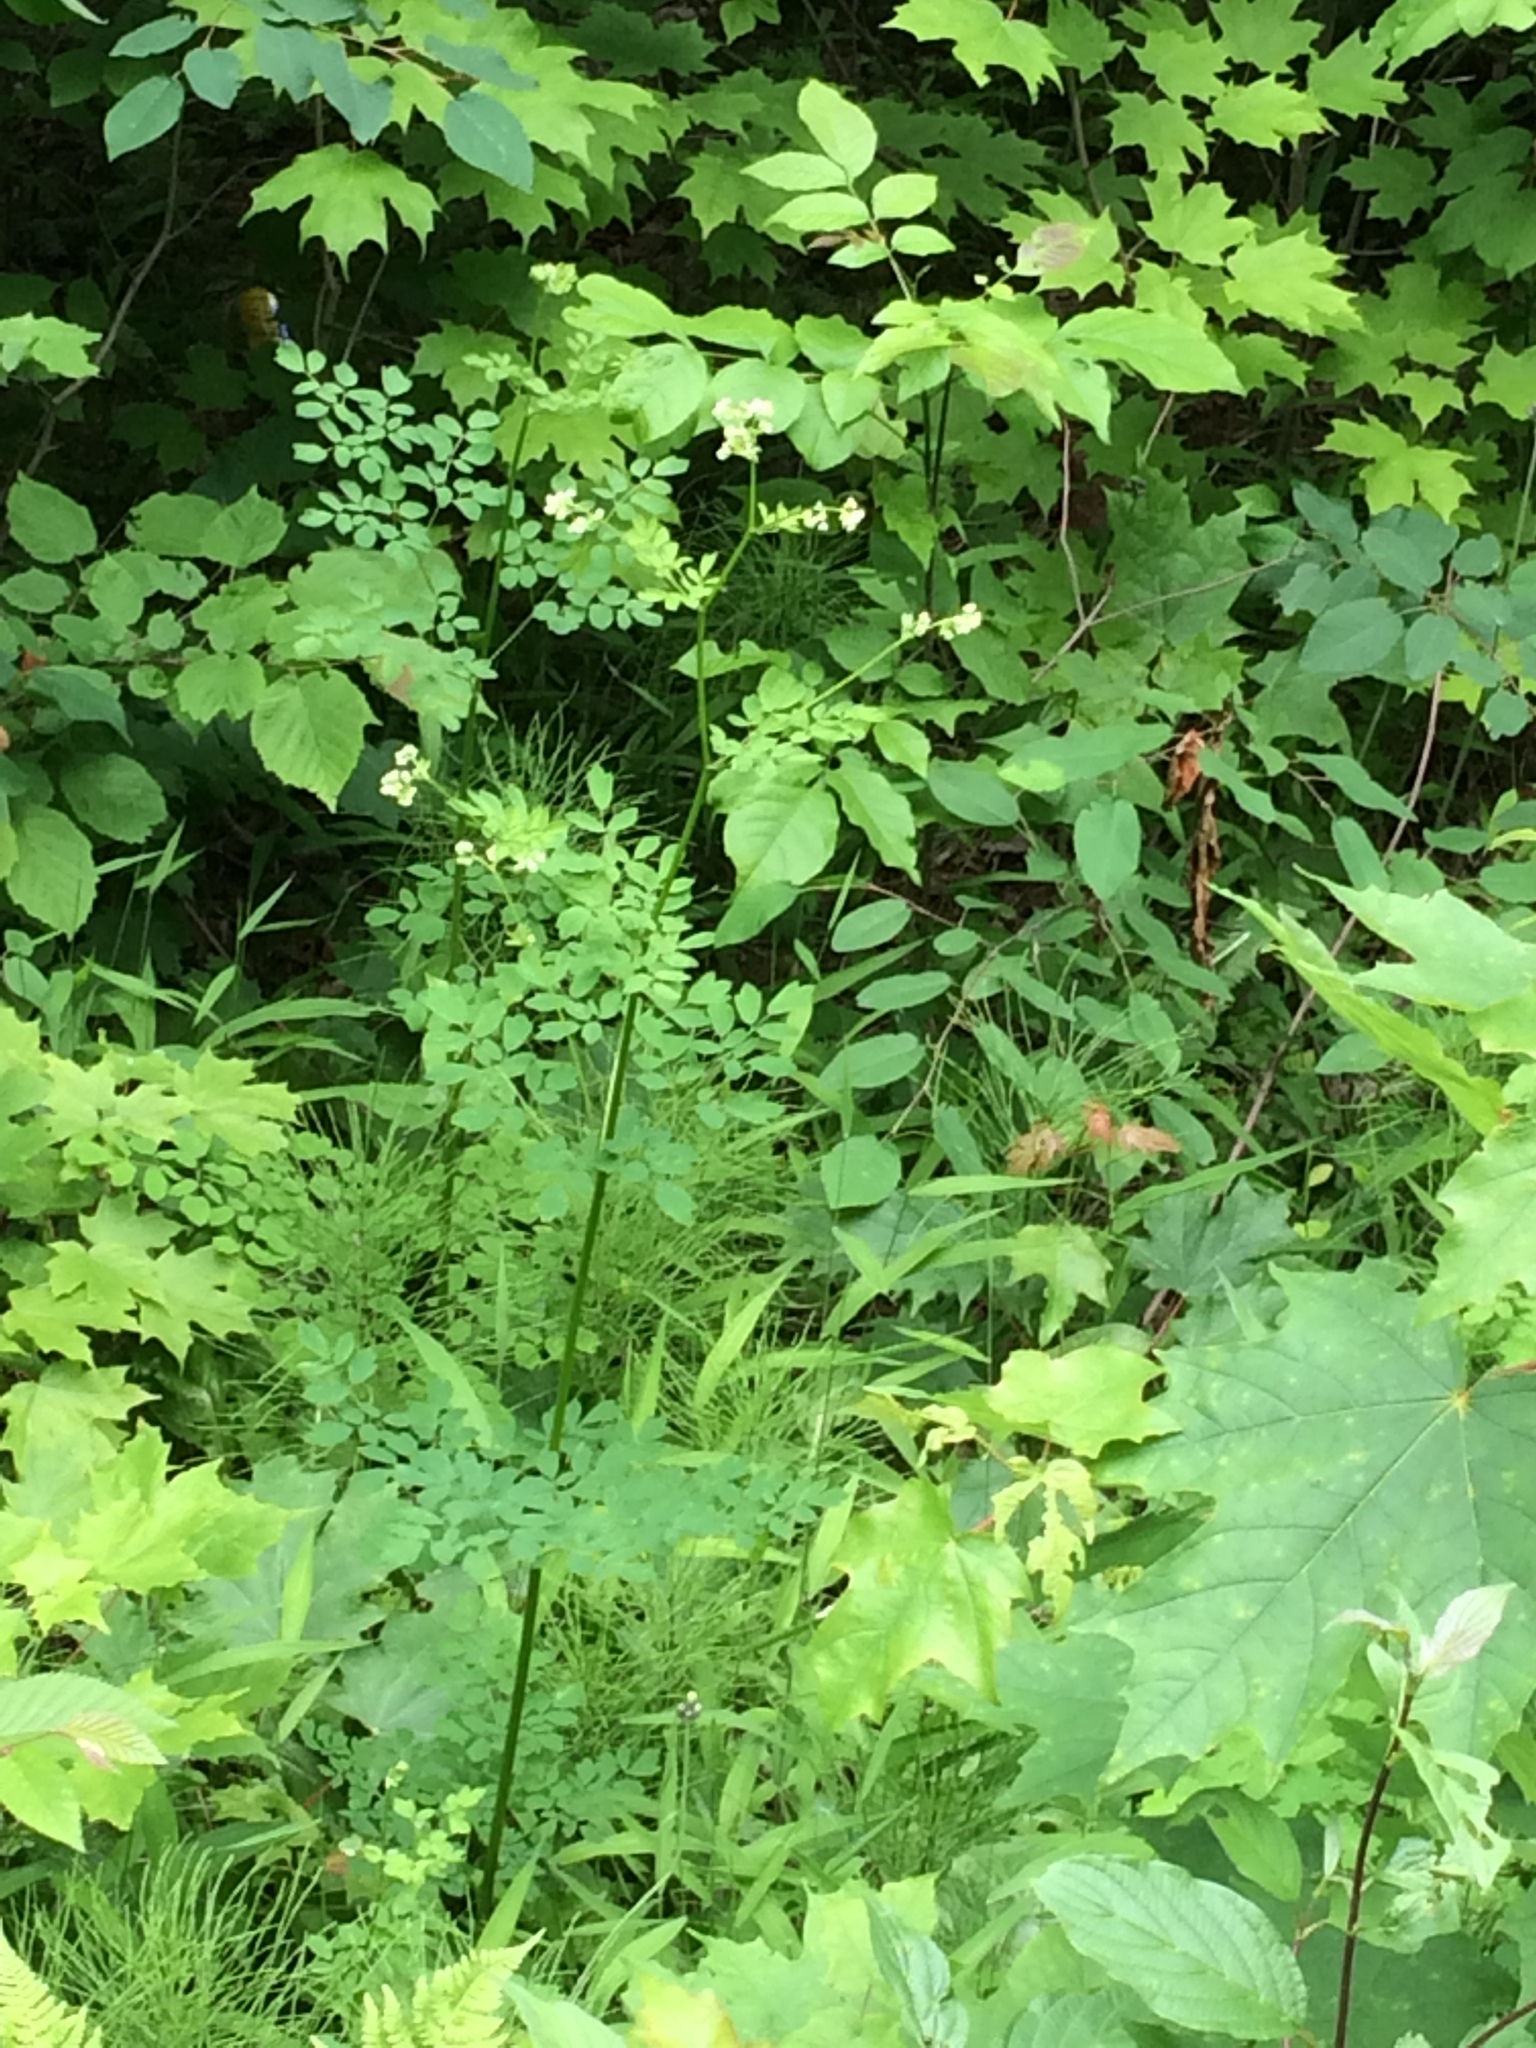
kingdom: Plantae
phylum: Tracheophyta
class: Magnoliopsida
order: Ranunculales
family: Ranunculaceae
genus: Thalictrum
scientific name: Thalictrum pubescens
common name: King-of-the-meadow
